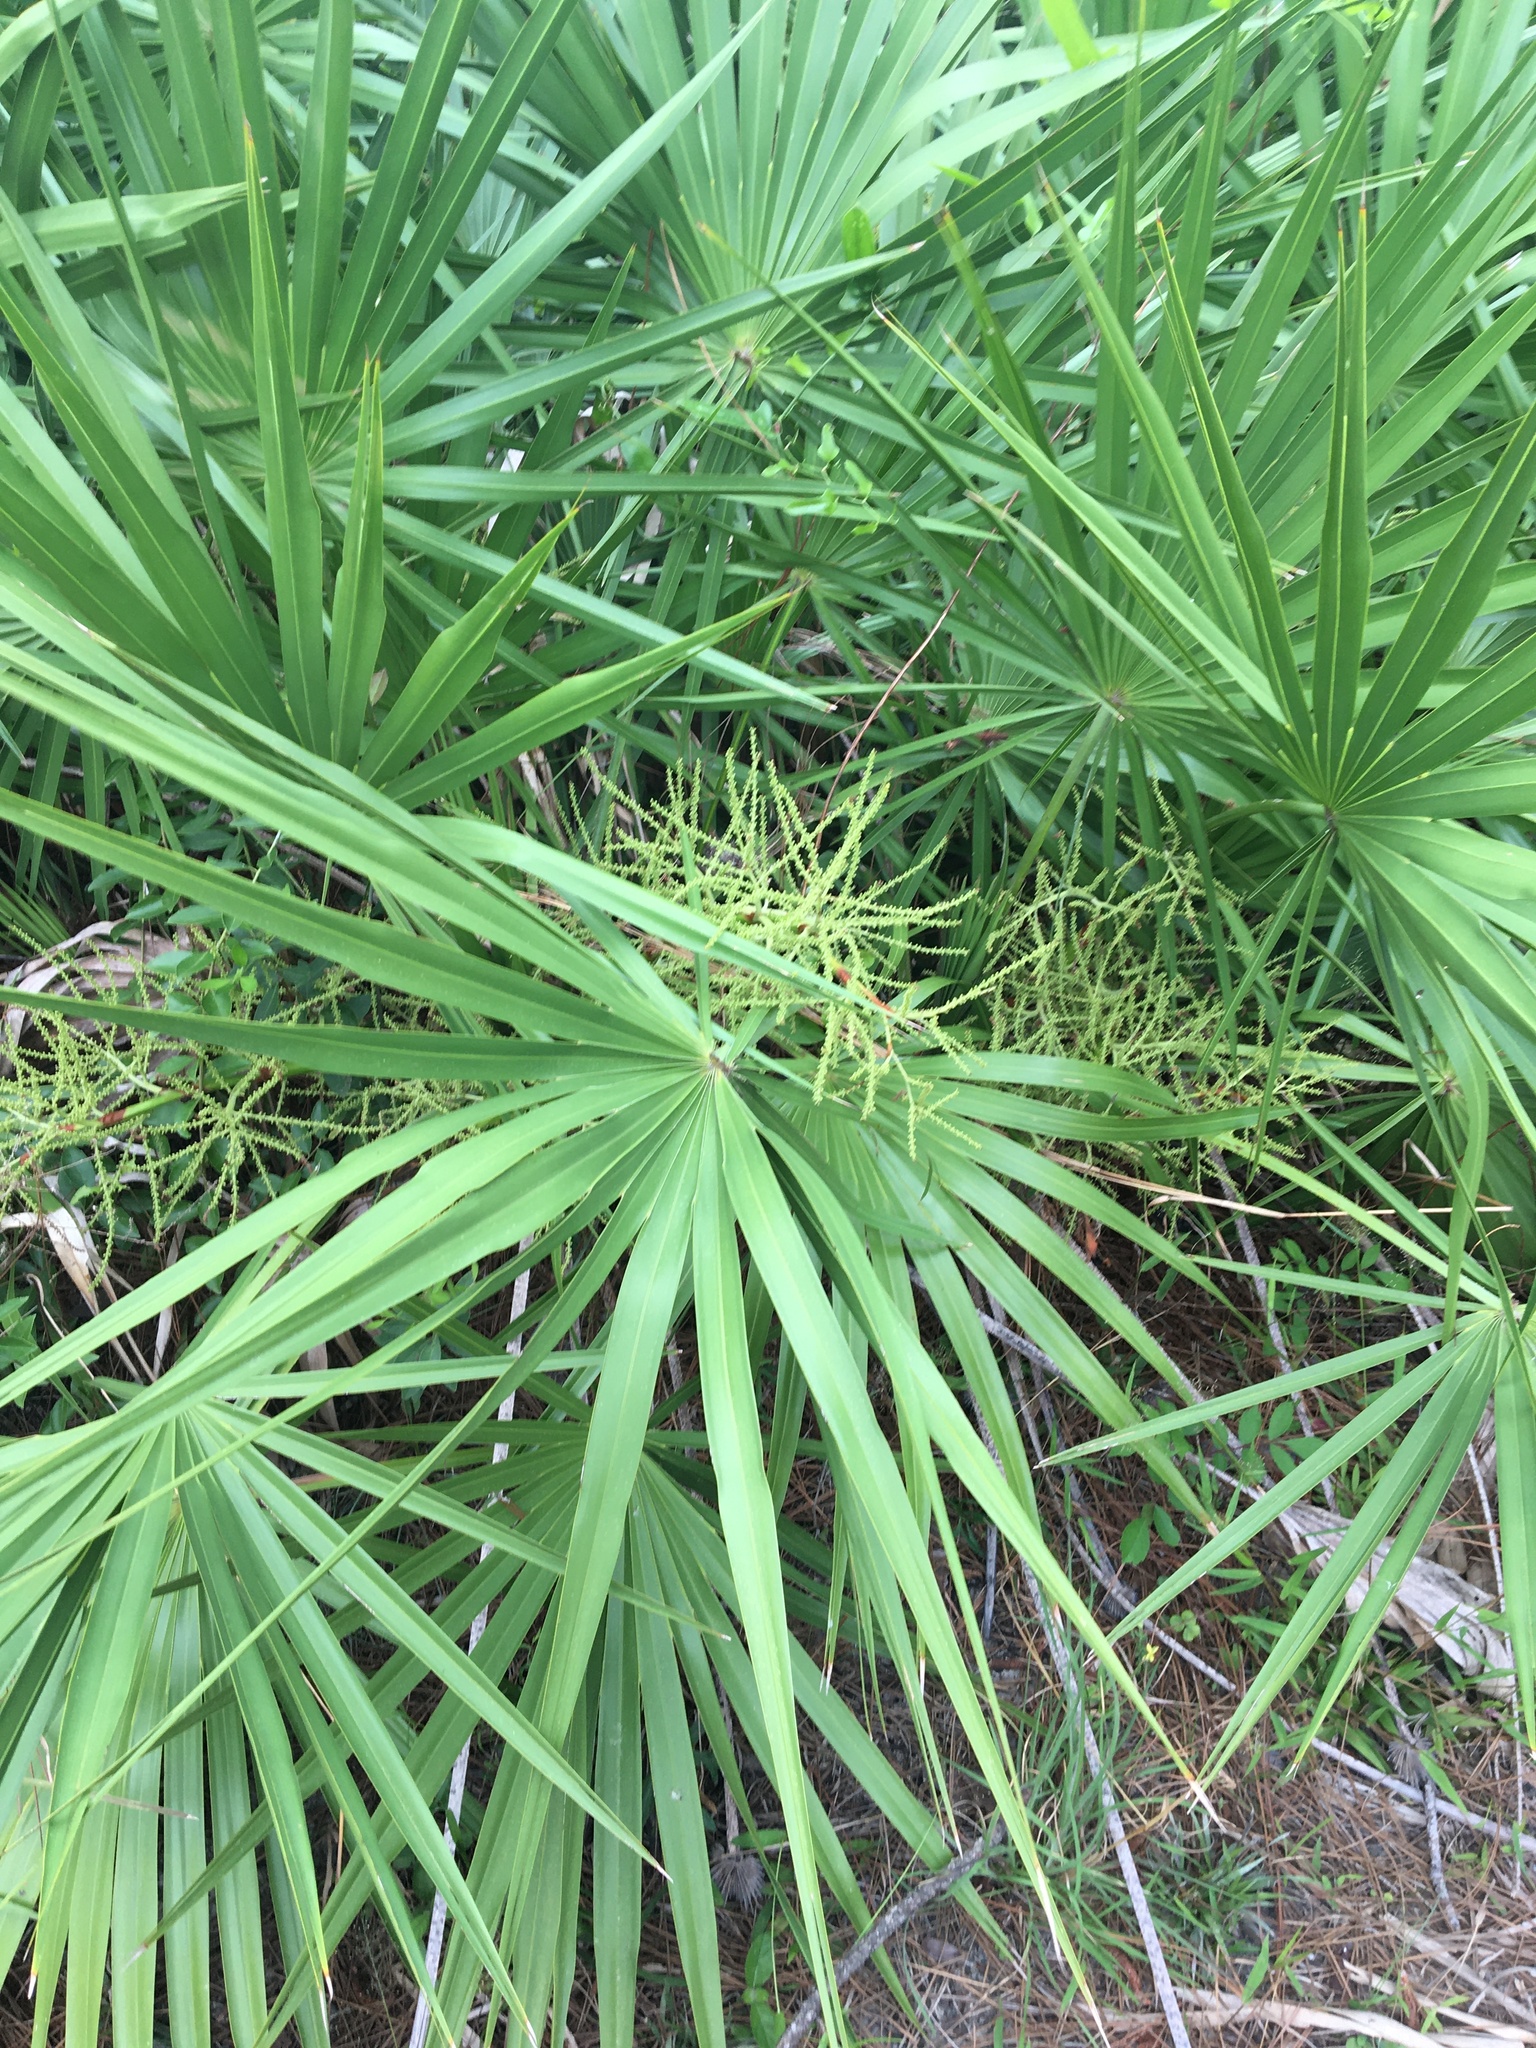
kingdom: Plantae
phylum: Tracheophyta
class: Liliopsida
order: Arecales
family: Arecaceae
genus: Serenoa
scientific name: Serenoa repens
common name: Saw-palmetto
